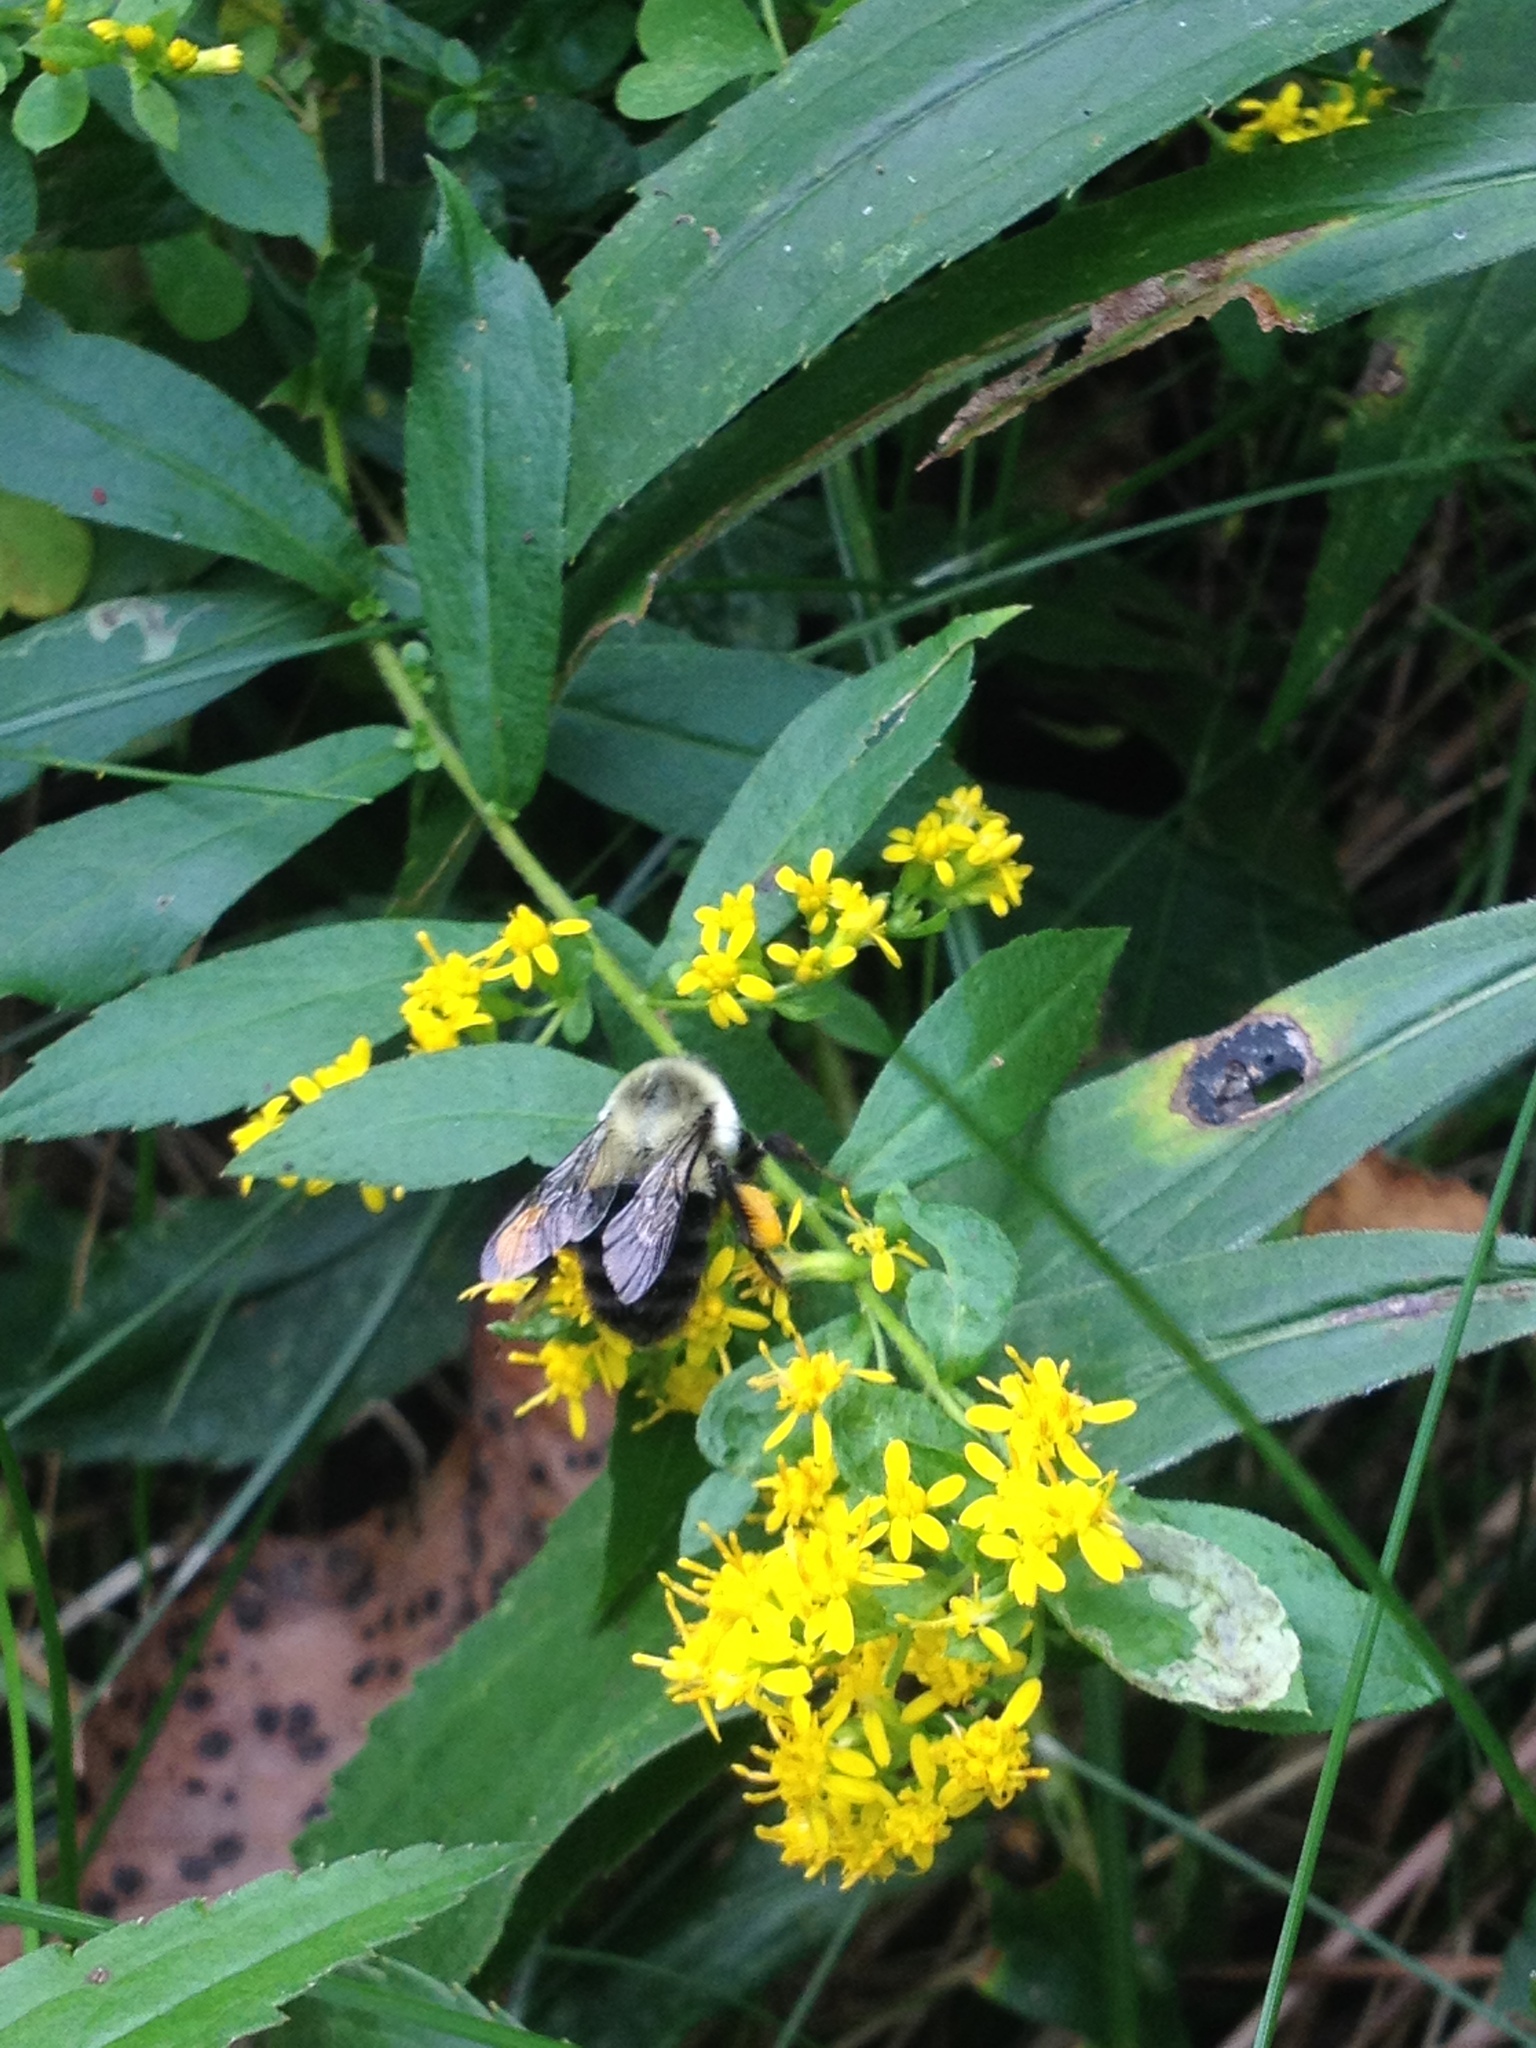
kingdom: Animalia
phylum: Arthropoda
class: Insecta
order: Hymenoptera
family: Apidae
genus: Bombus
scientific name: Bombus impatiens
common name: Common eastern bumble bee
